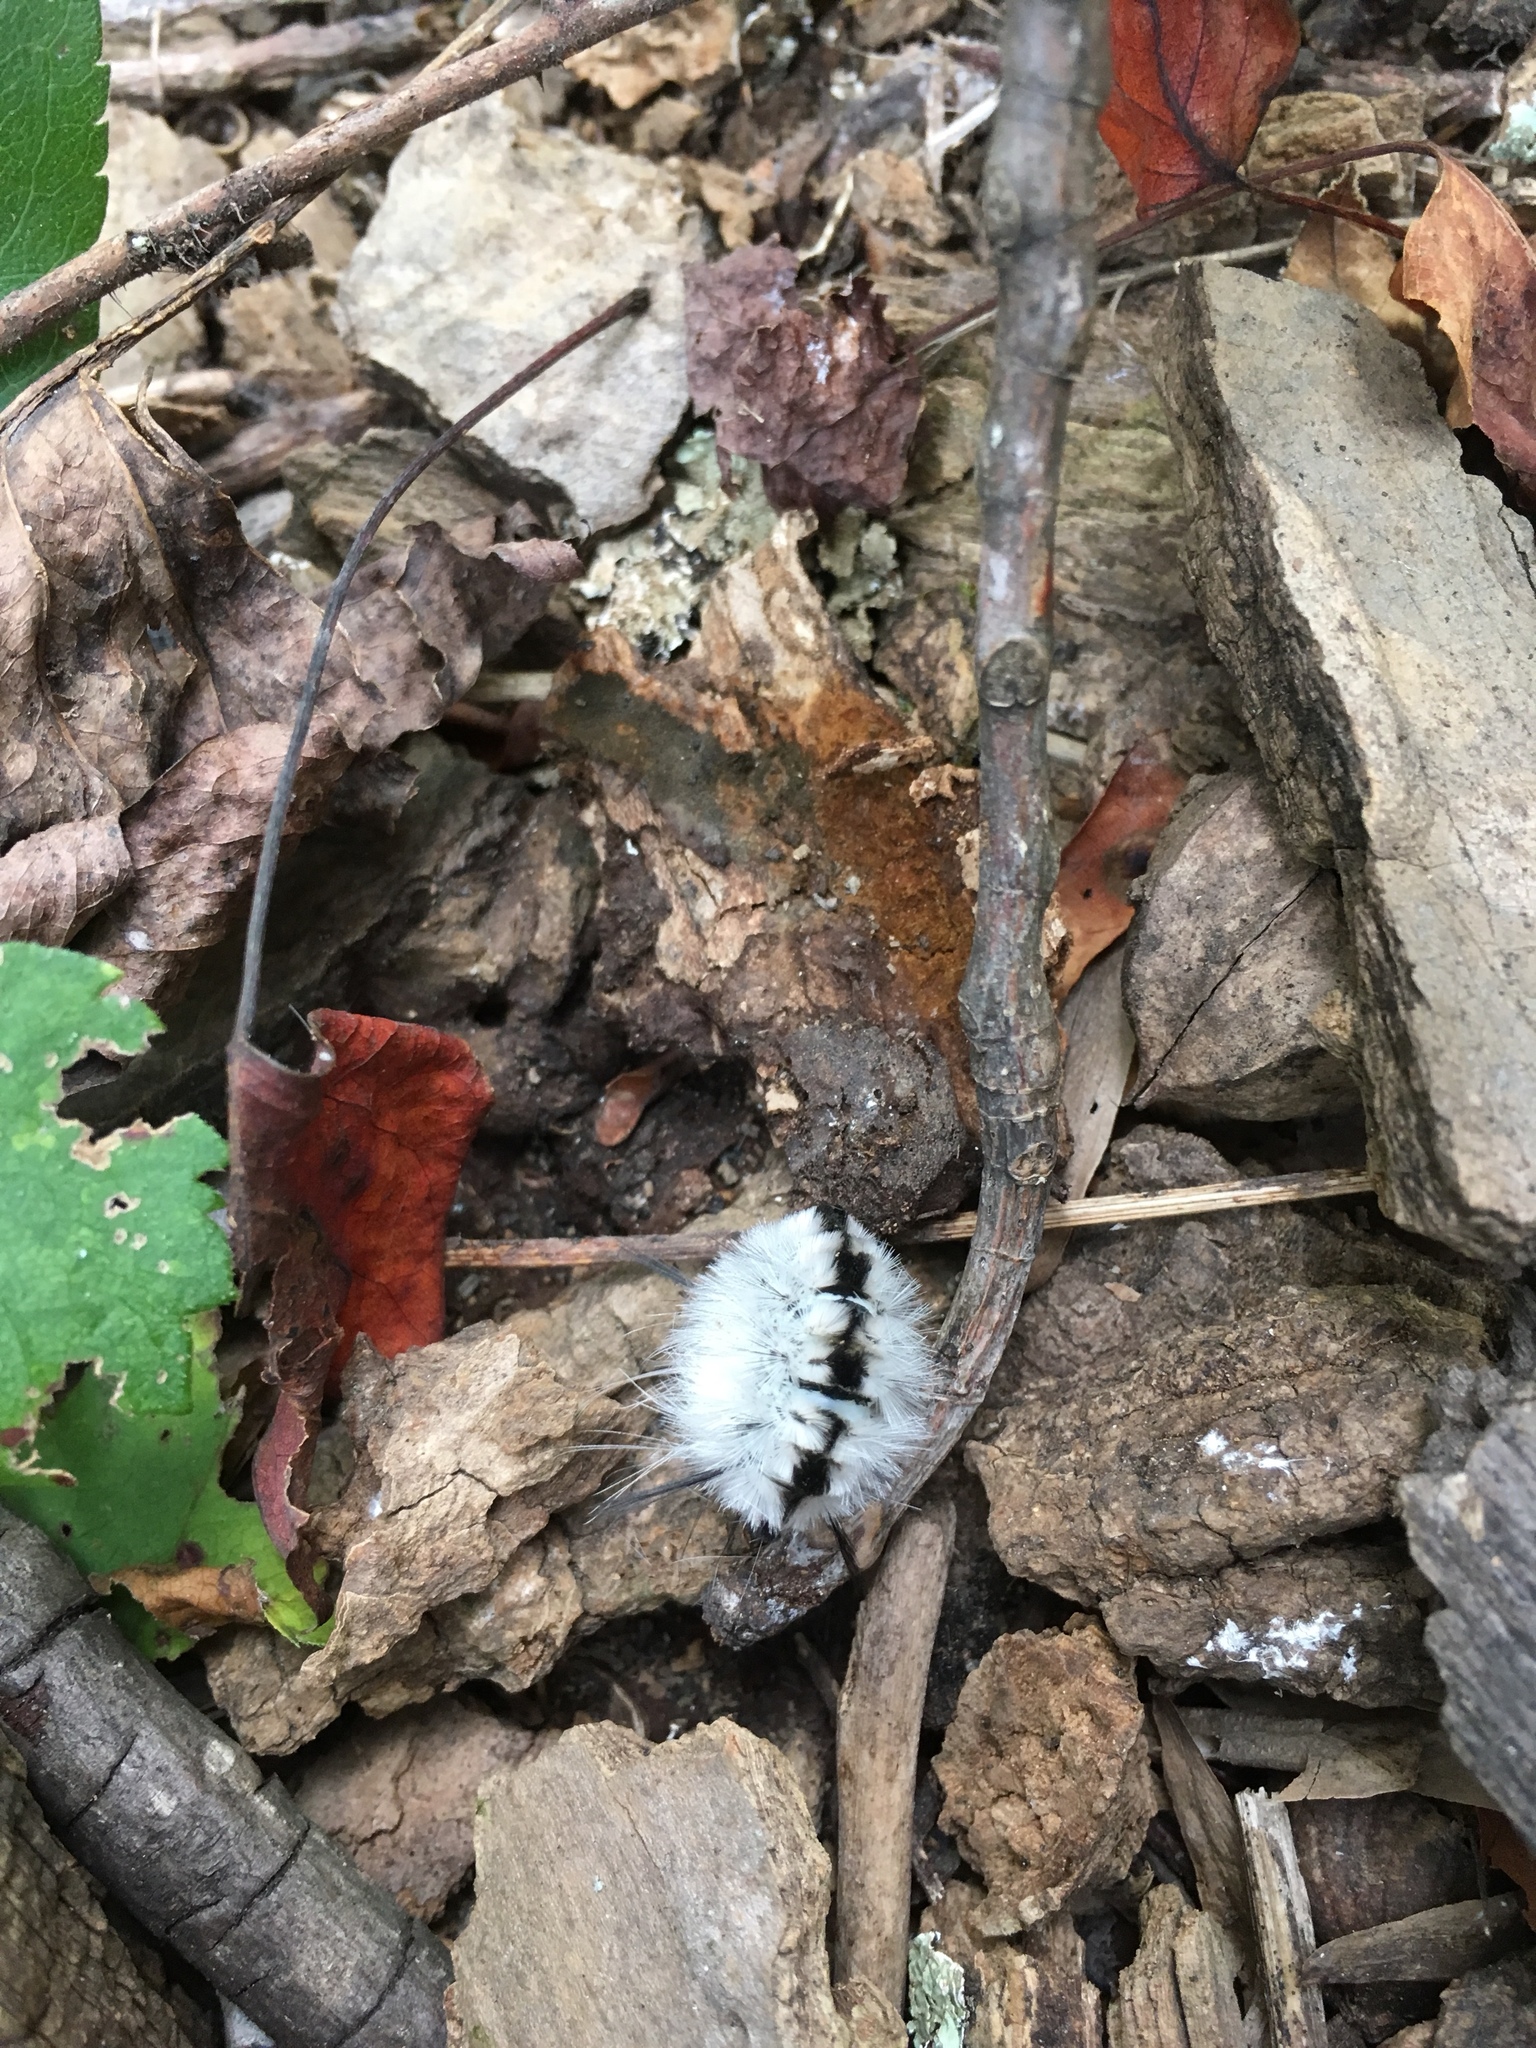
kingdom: Animalia
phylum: Arthropoda
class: Insecta
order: Lepidoptera
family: Erebidae
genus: Lophocampa
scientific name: Lophocampa caryae
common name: Hickory tussock moth
